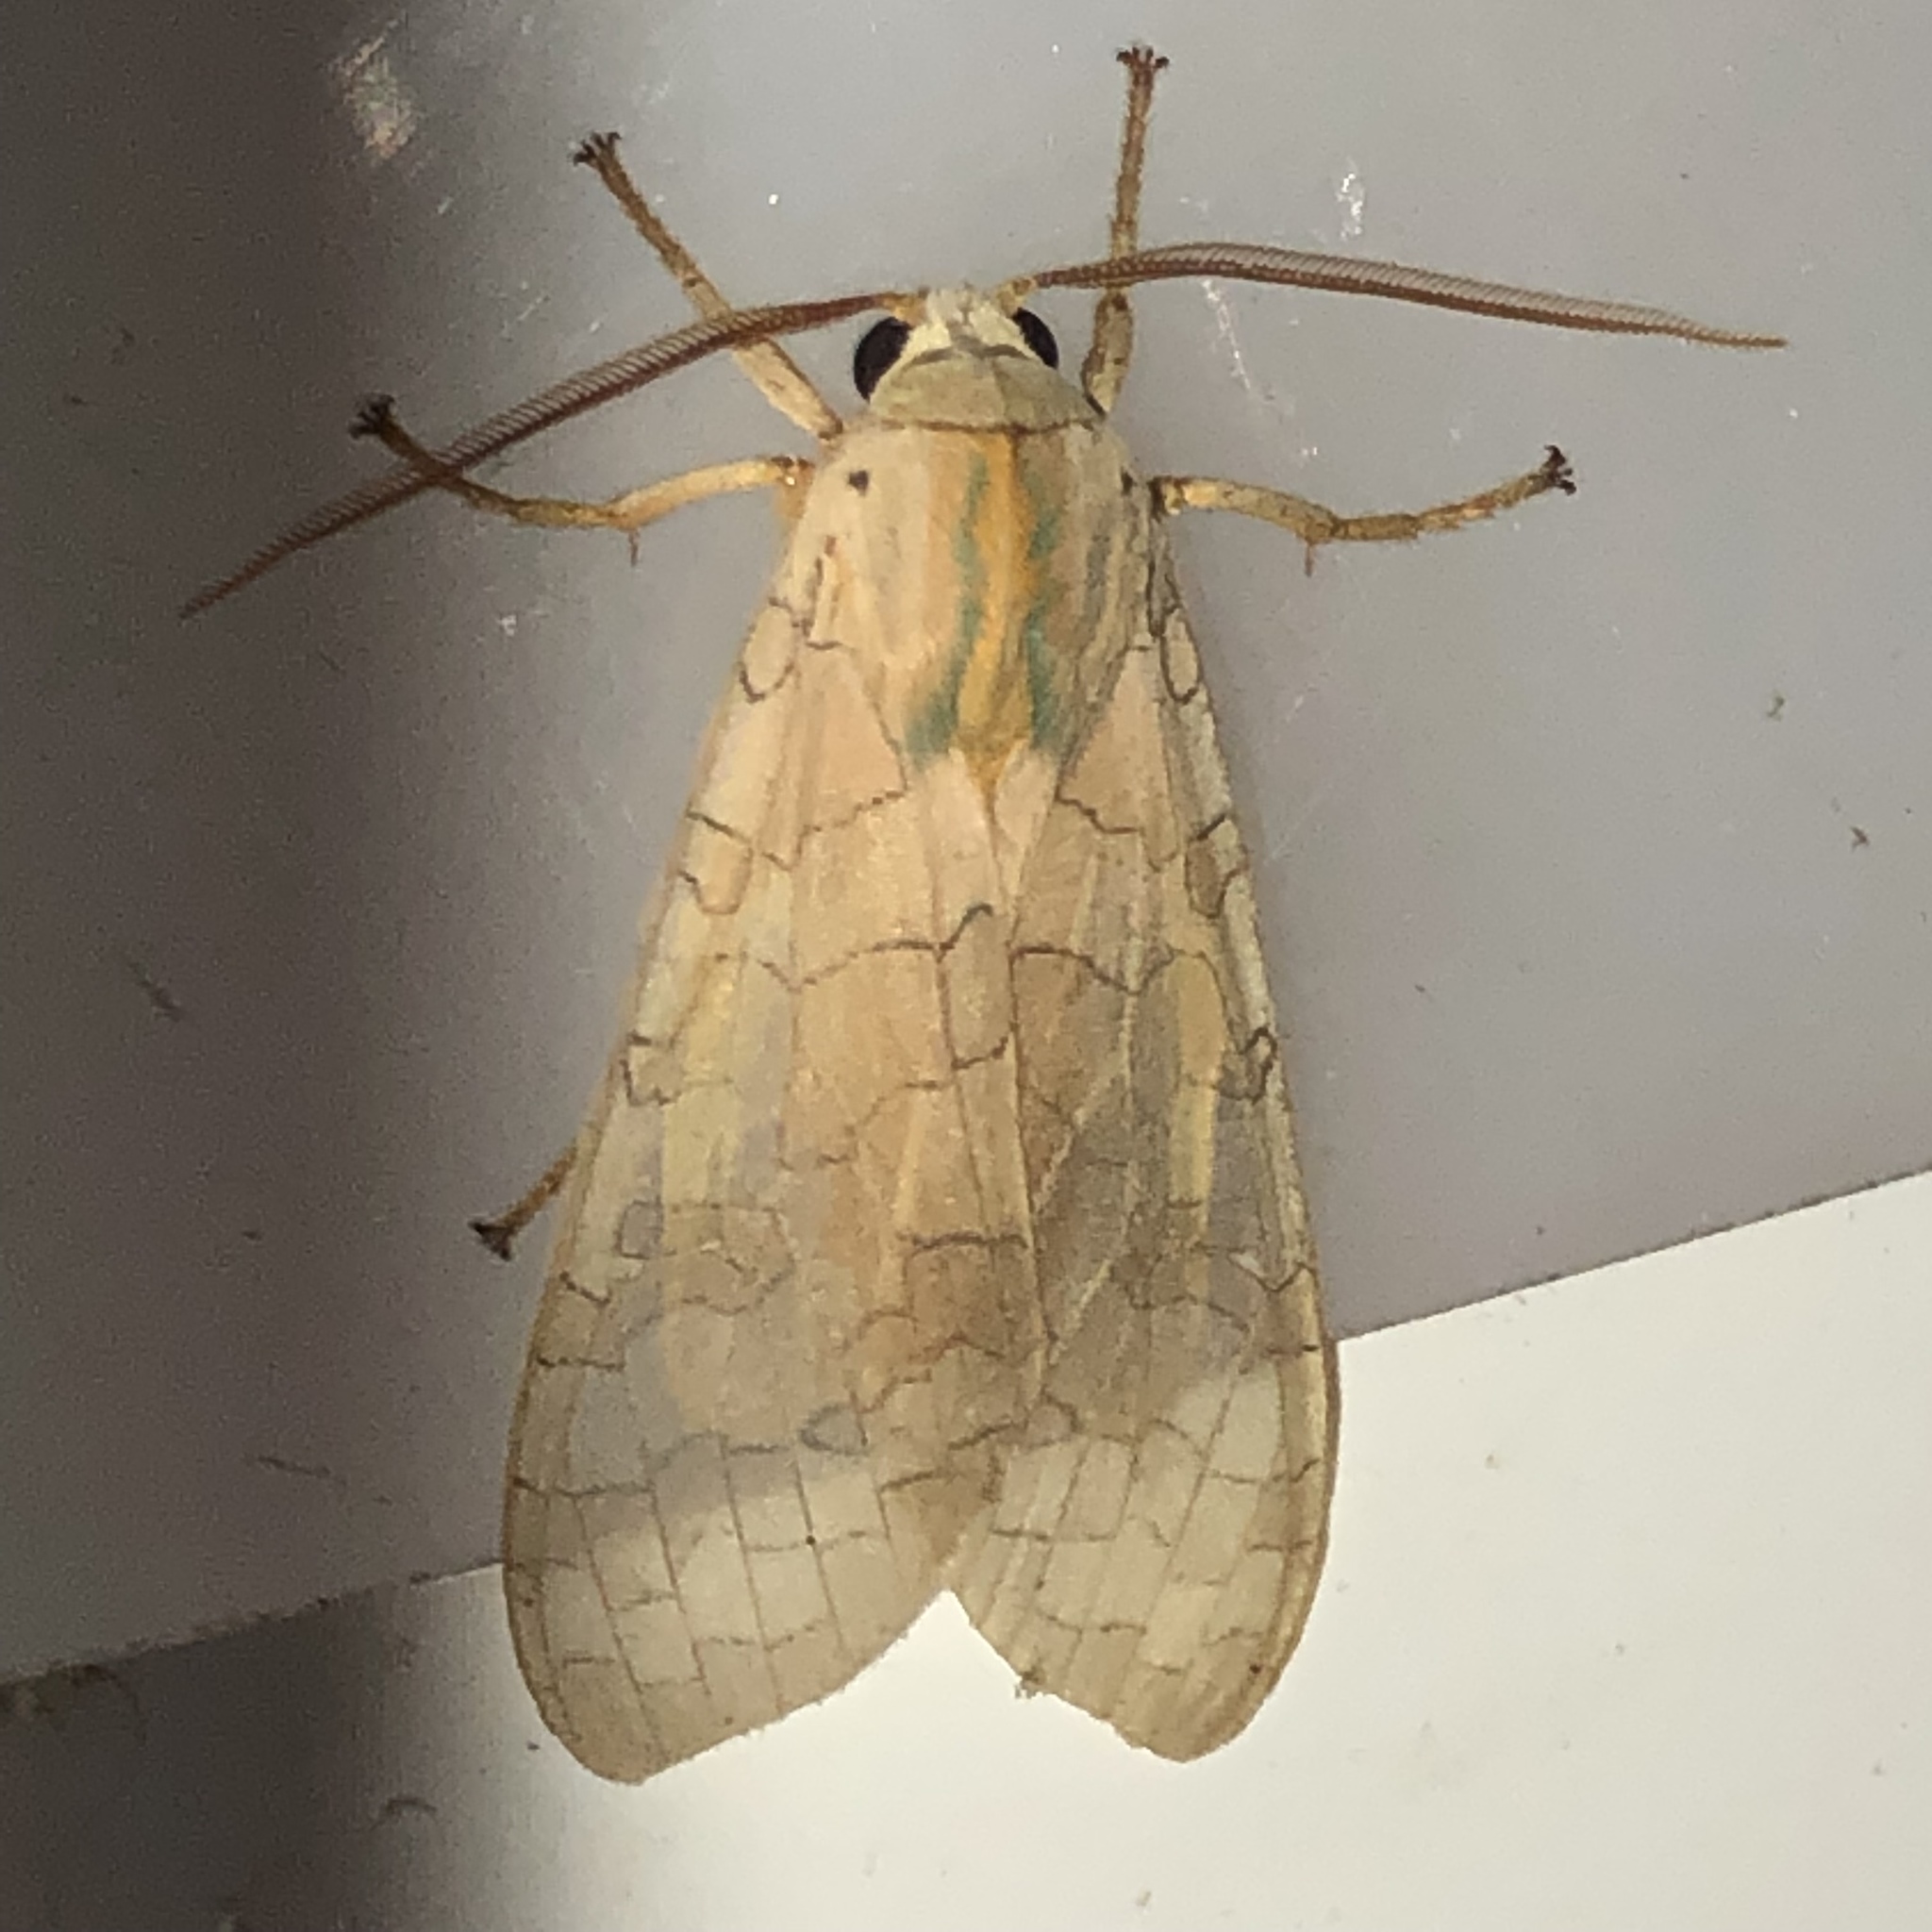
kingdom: Animalia
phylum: Arthropoda
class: Insecta
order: Lepidoptera
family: Erebidae
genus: Halysidota
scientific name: Halysidota tessellaris
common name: Banded tussock moth
